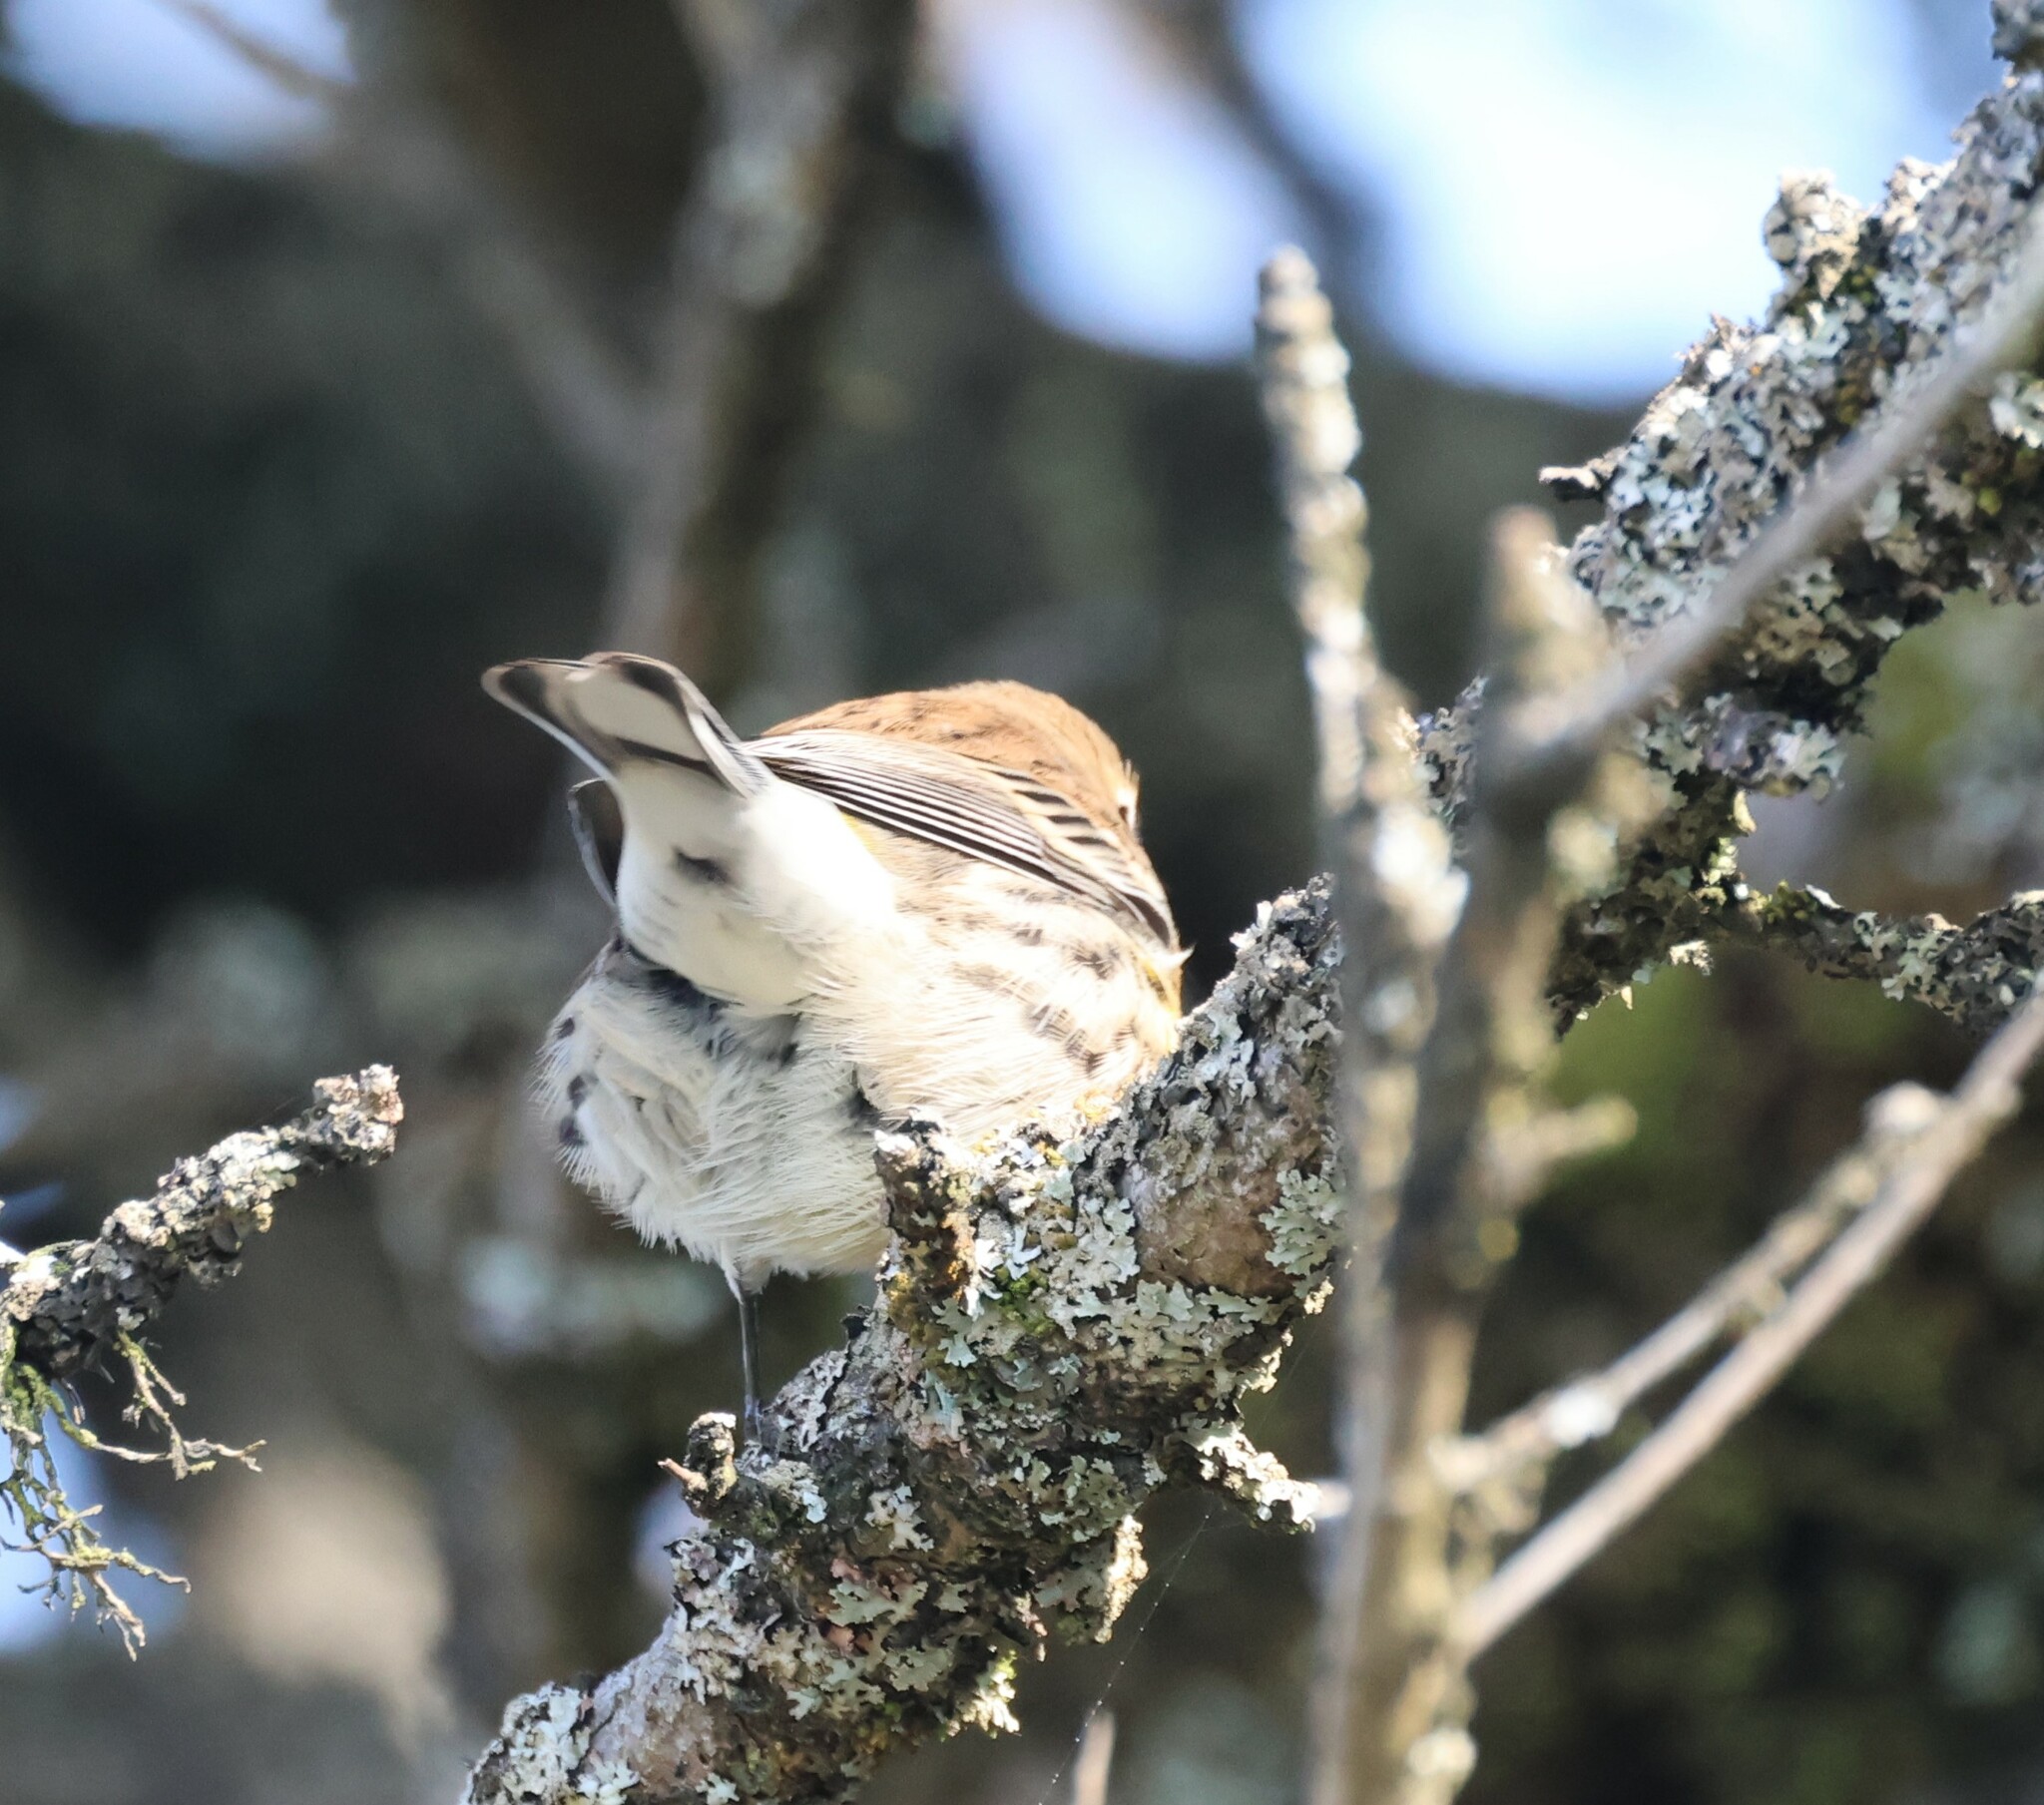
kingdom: Animalia
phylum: Chordata
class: Aves
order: Passeriformes
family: Parulidae
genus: Setophaga
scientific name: Setophaga coronata
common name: Myrtle warbler
